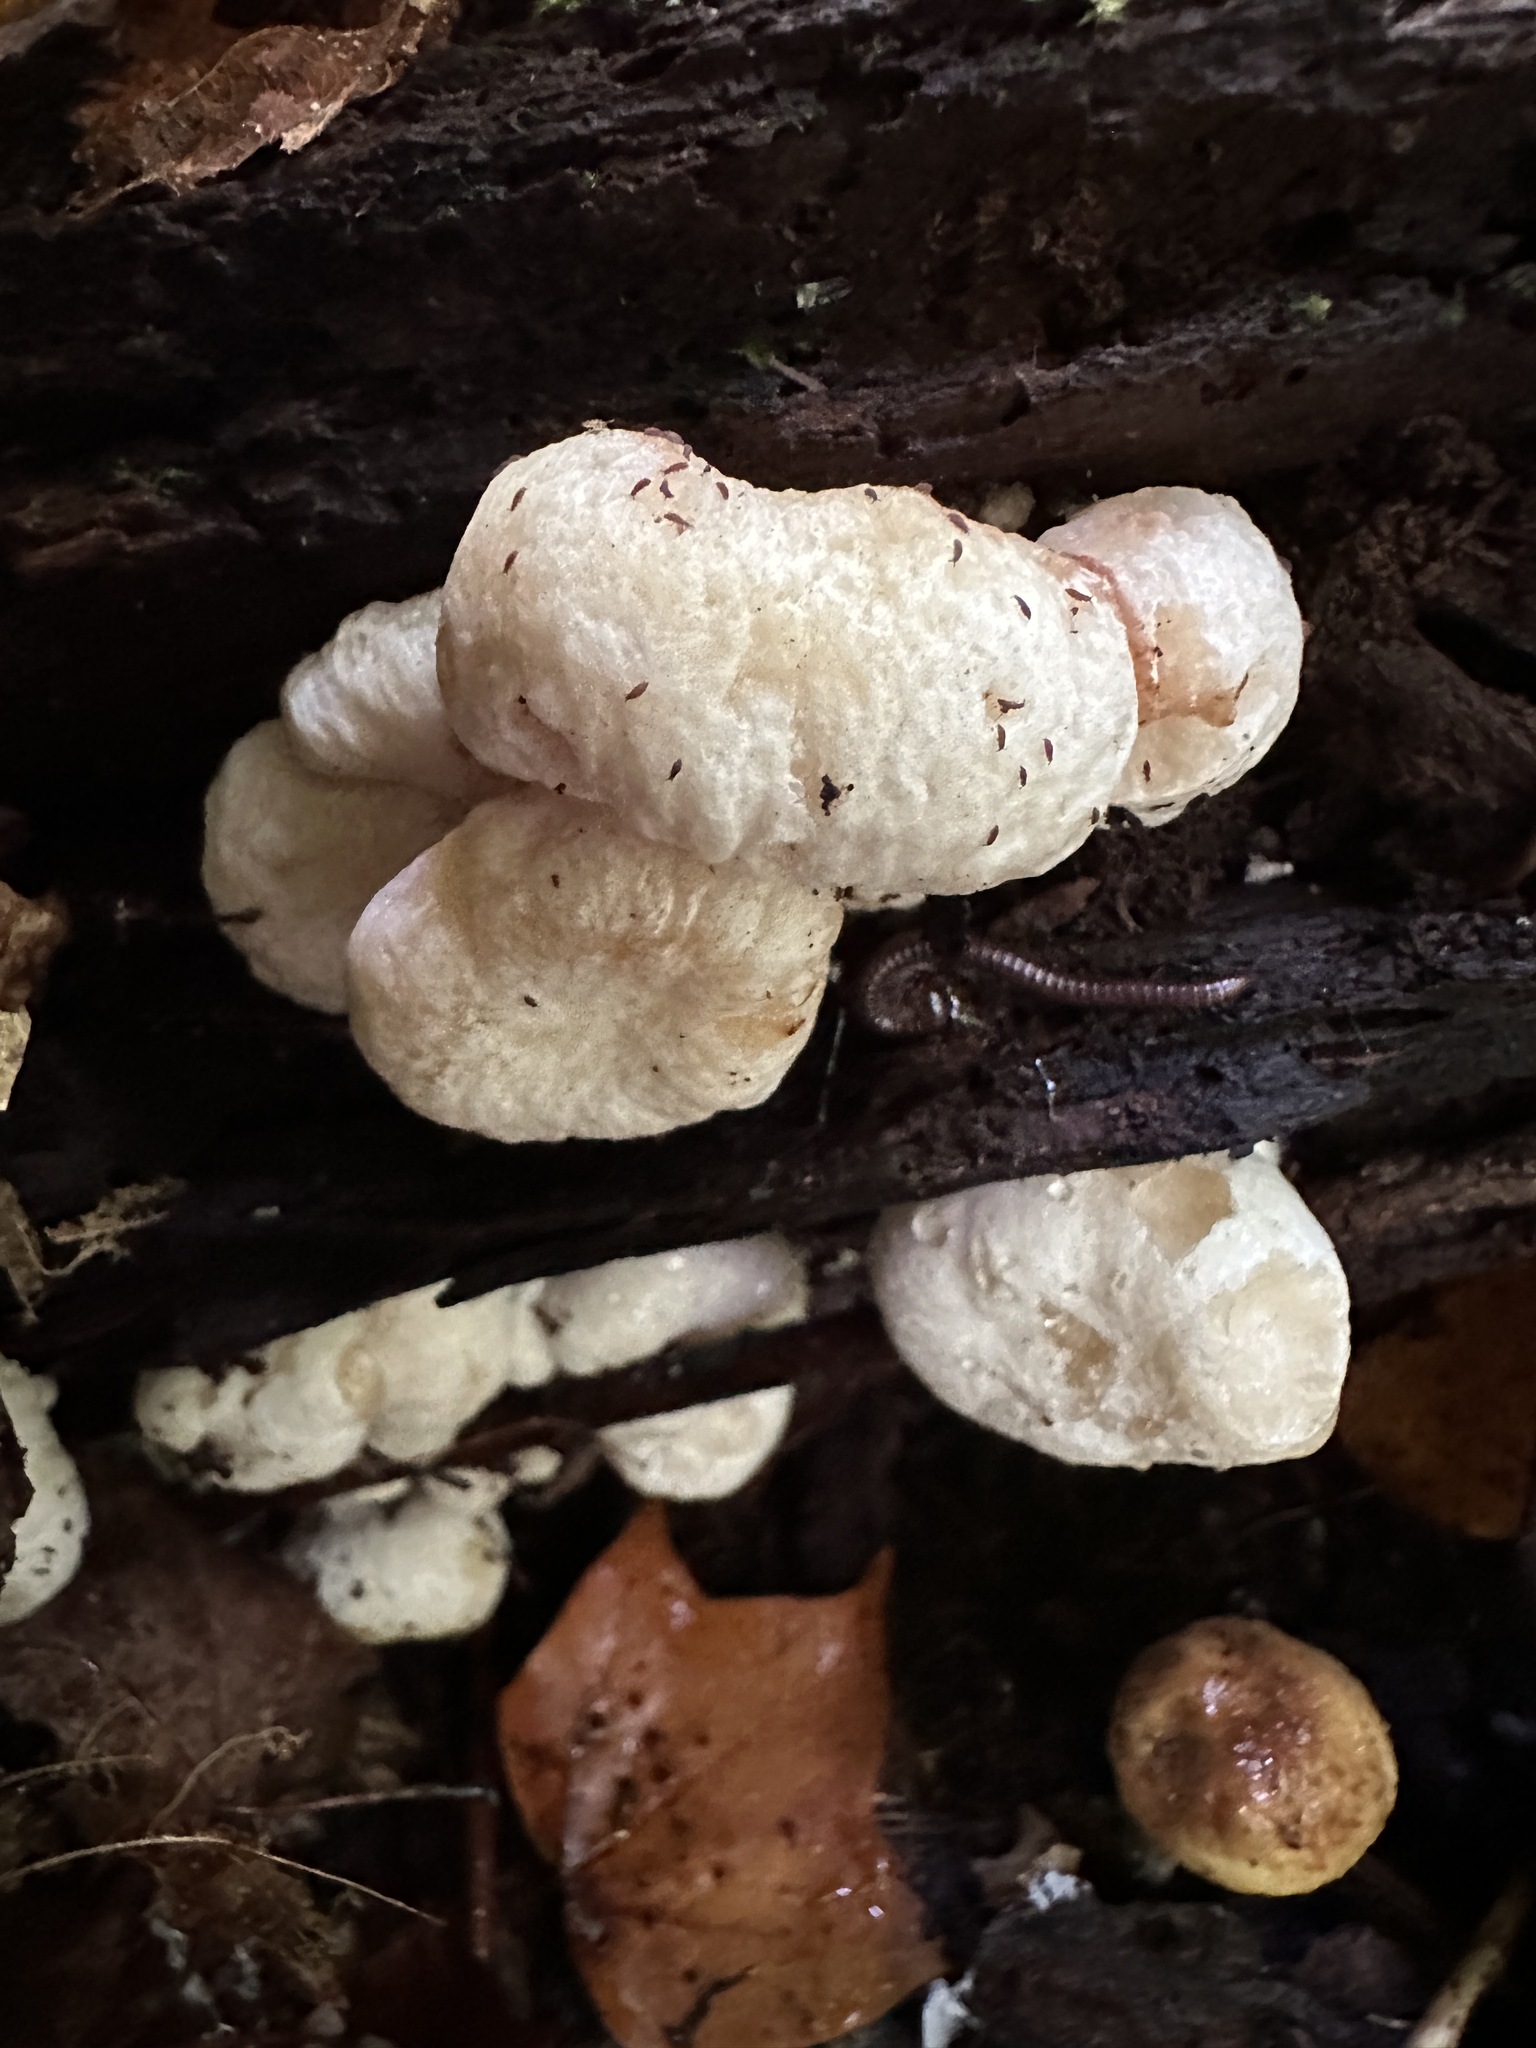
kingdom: Fungi
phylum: Basidiomycota
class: Agaricomycetes
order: Agaricales
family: Entolomataceae
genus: Entoloma
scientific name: Entoloma abortivum
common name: Aborted entoloma
